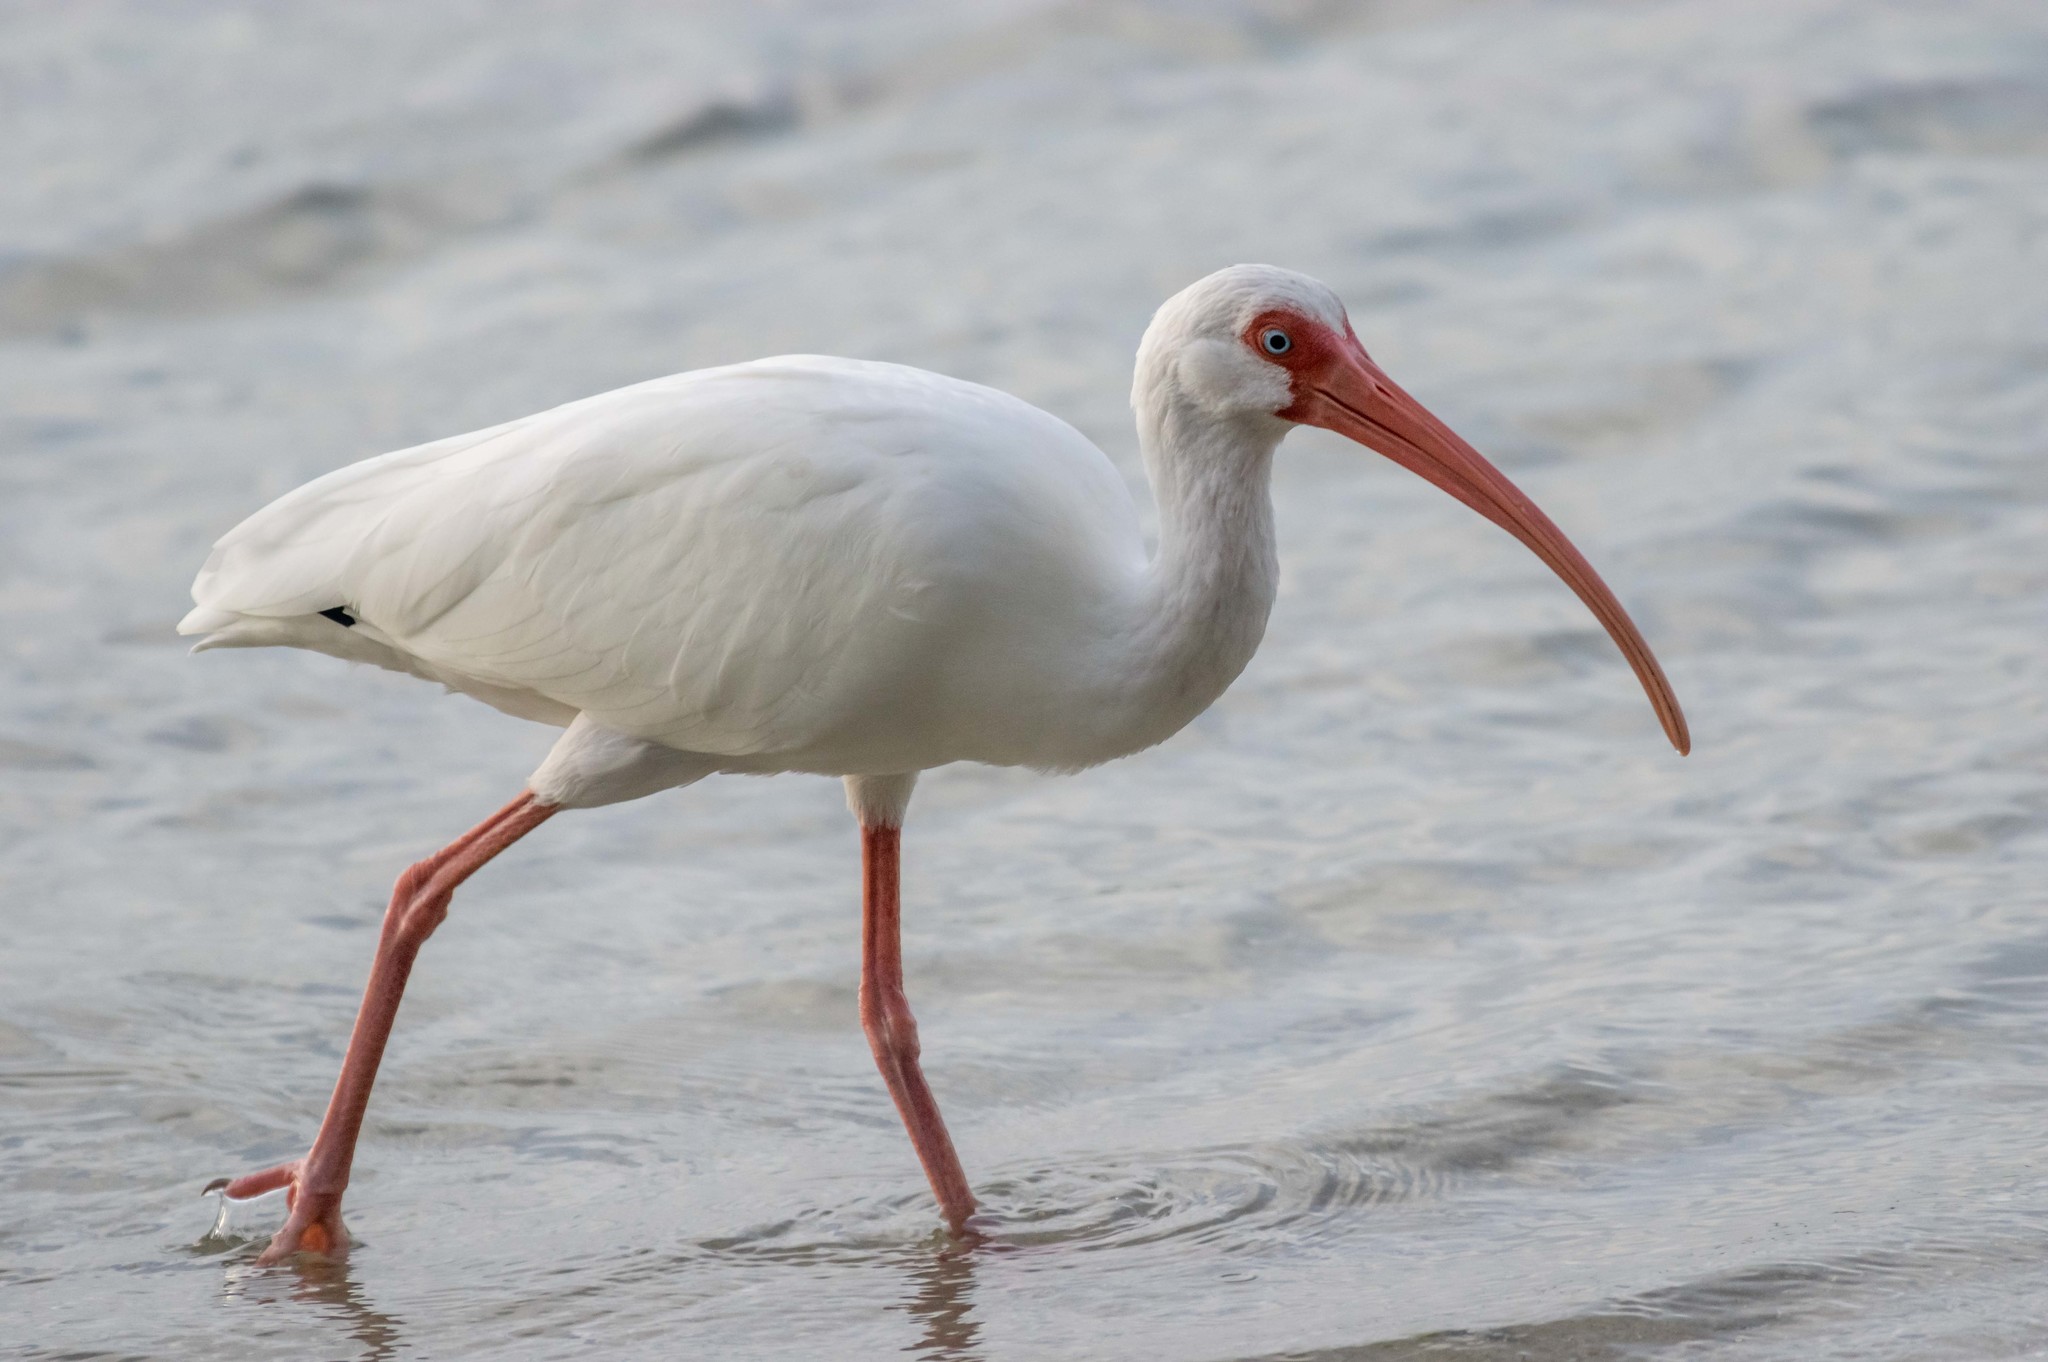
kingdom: Animalia
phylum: Chordata
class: Aves
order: Pelecaniformes
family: Threskiornithidae
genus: Eudocimus
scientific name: Eudocimus albus
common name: White ibis
